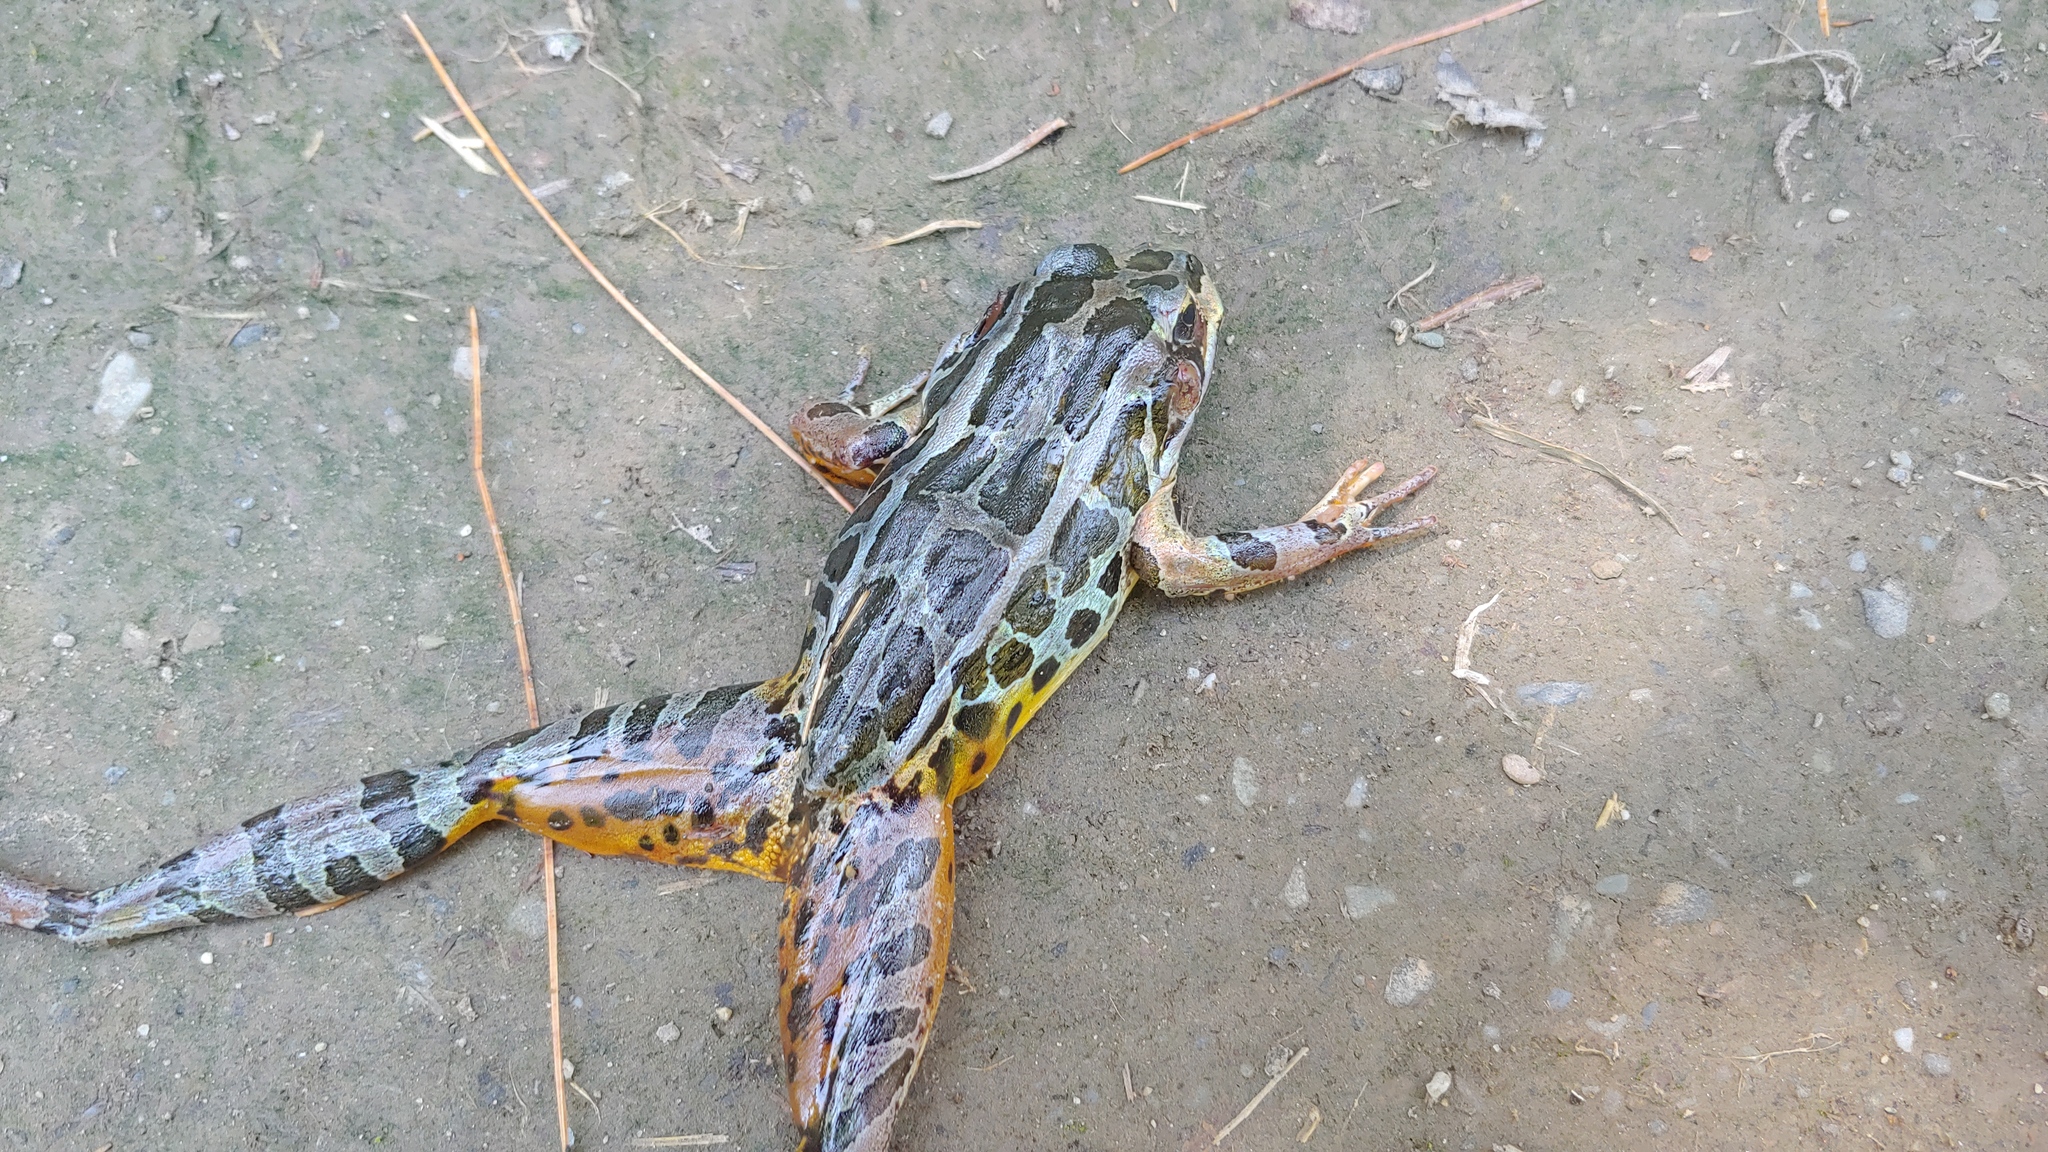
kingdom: Animalia
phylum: Chordata
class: Amphibia
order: Anura
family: Ranidae
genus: Lithobates
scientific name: Lithobates palustris
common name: Pickerel frog
